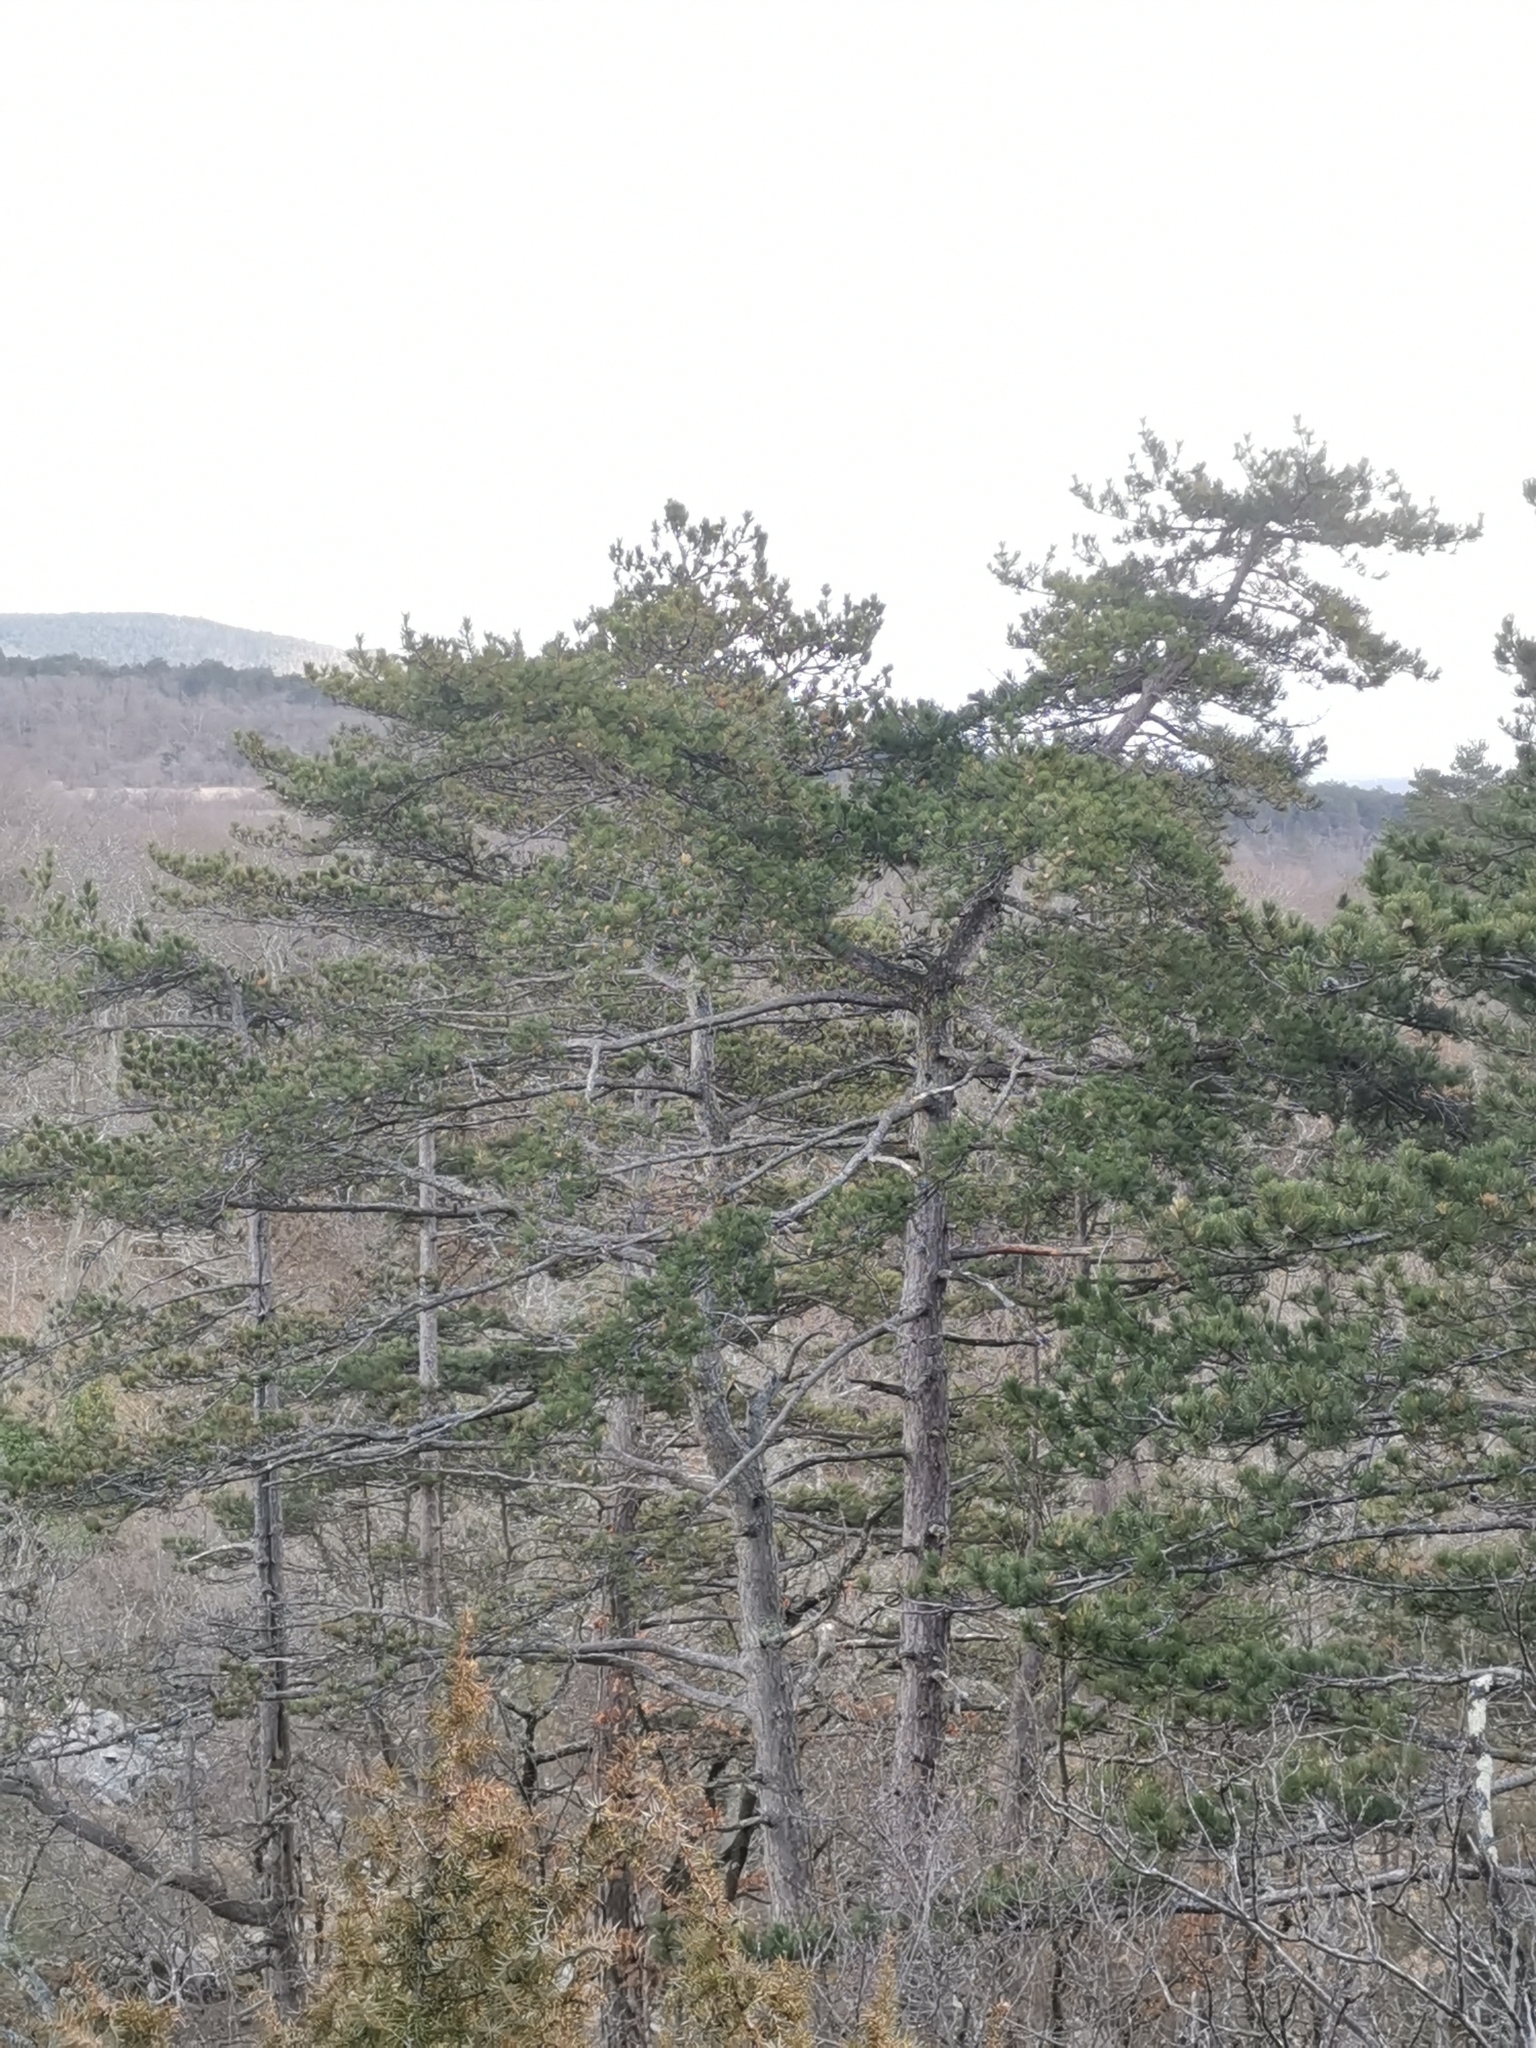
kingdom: Plantae
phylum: Tracheophyta
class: Pinopsida
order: Pinales
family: Pinaceae
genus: Pinus
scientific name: Pinus nigra
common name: Austrian pine
